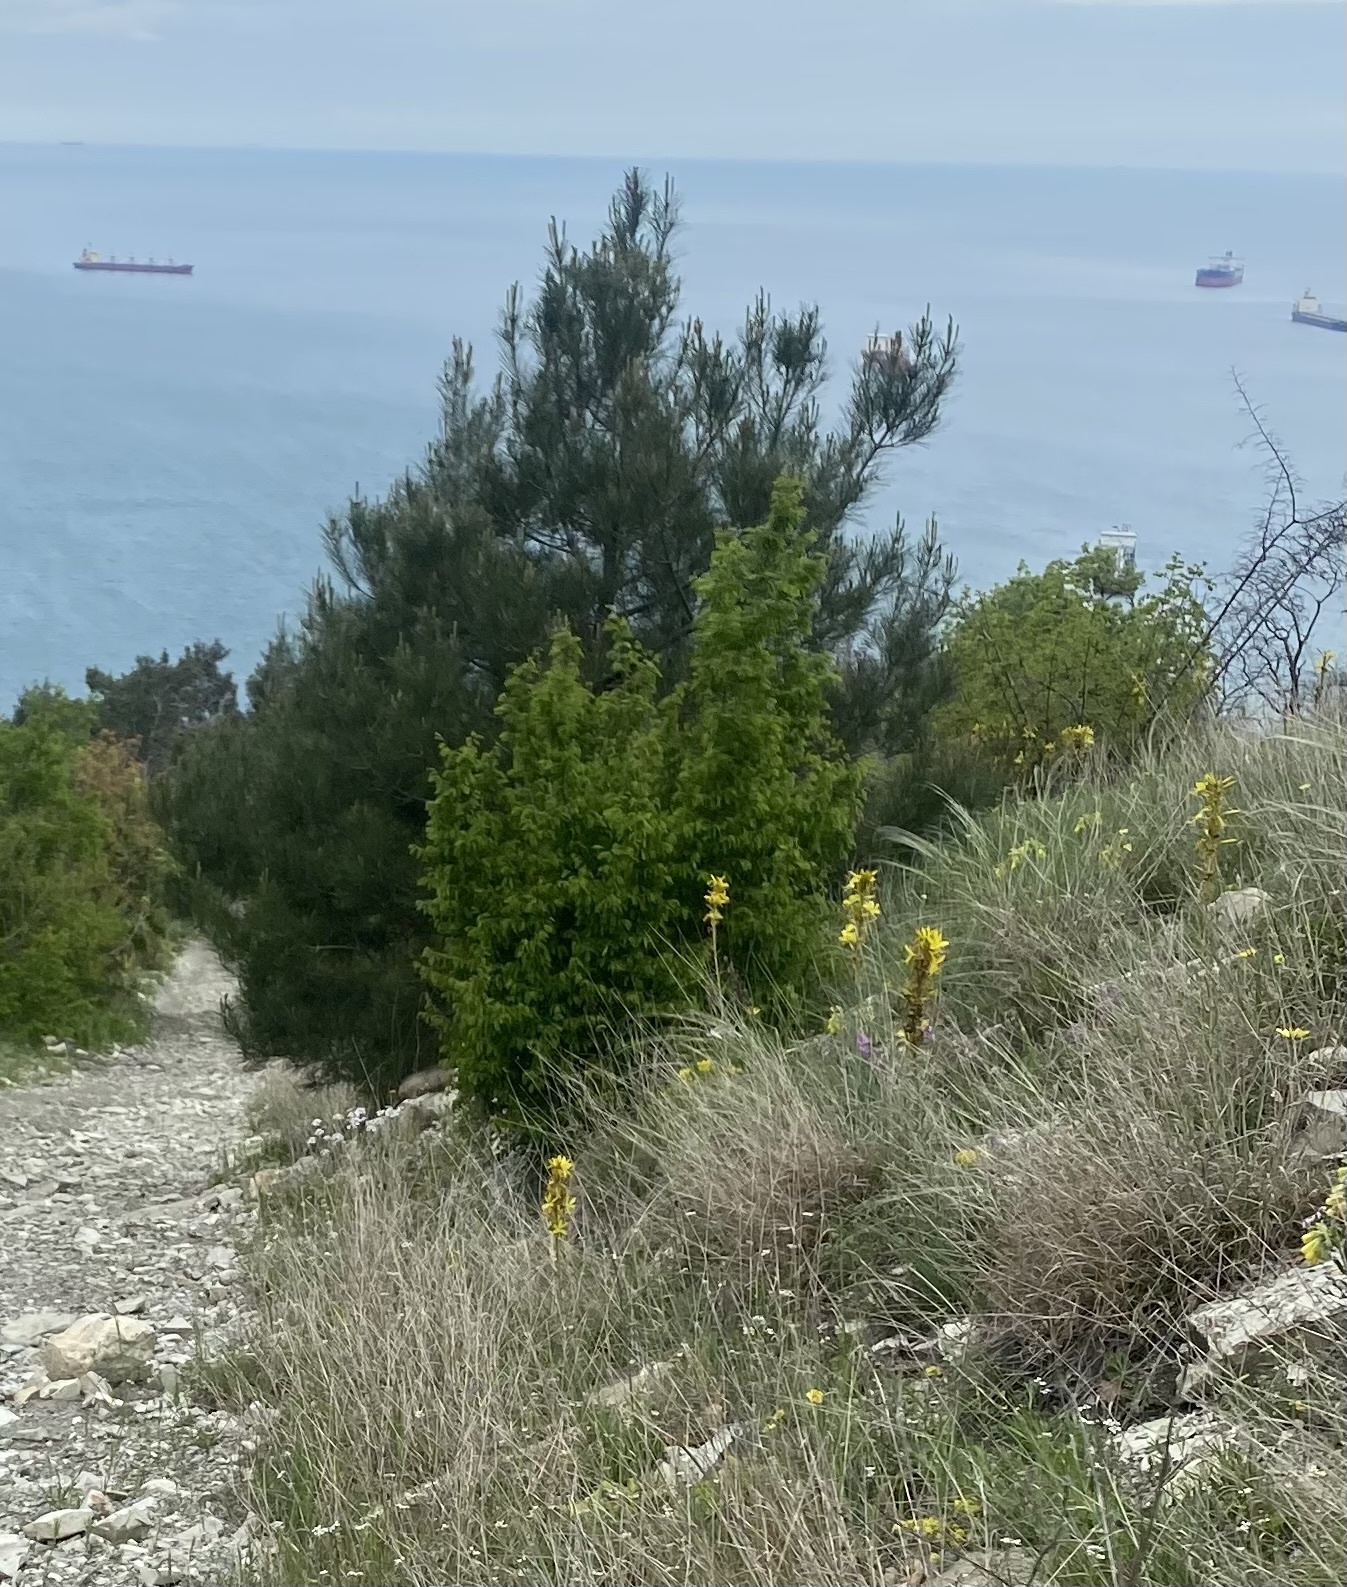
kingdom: Plantae
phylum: Tracheophyta
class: Liliopsida
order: Asparagales
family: Asphodelaceae
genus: Asphodeline
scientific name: Asphodeline lutea
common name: Yellow asphodel
